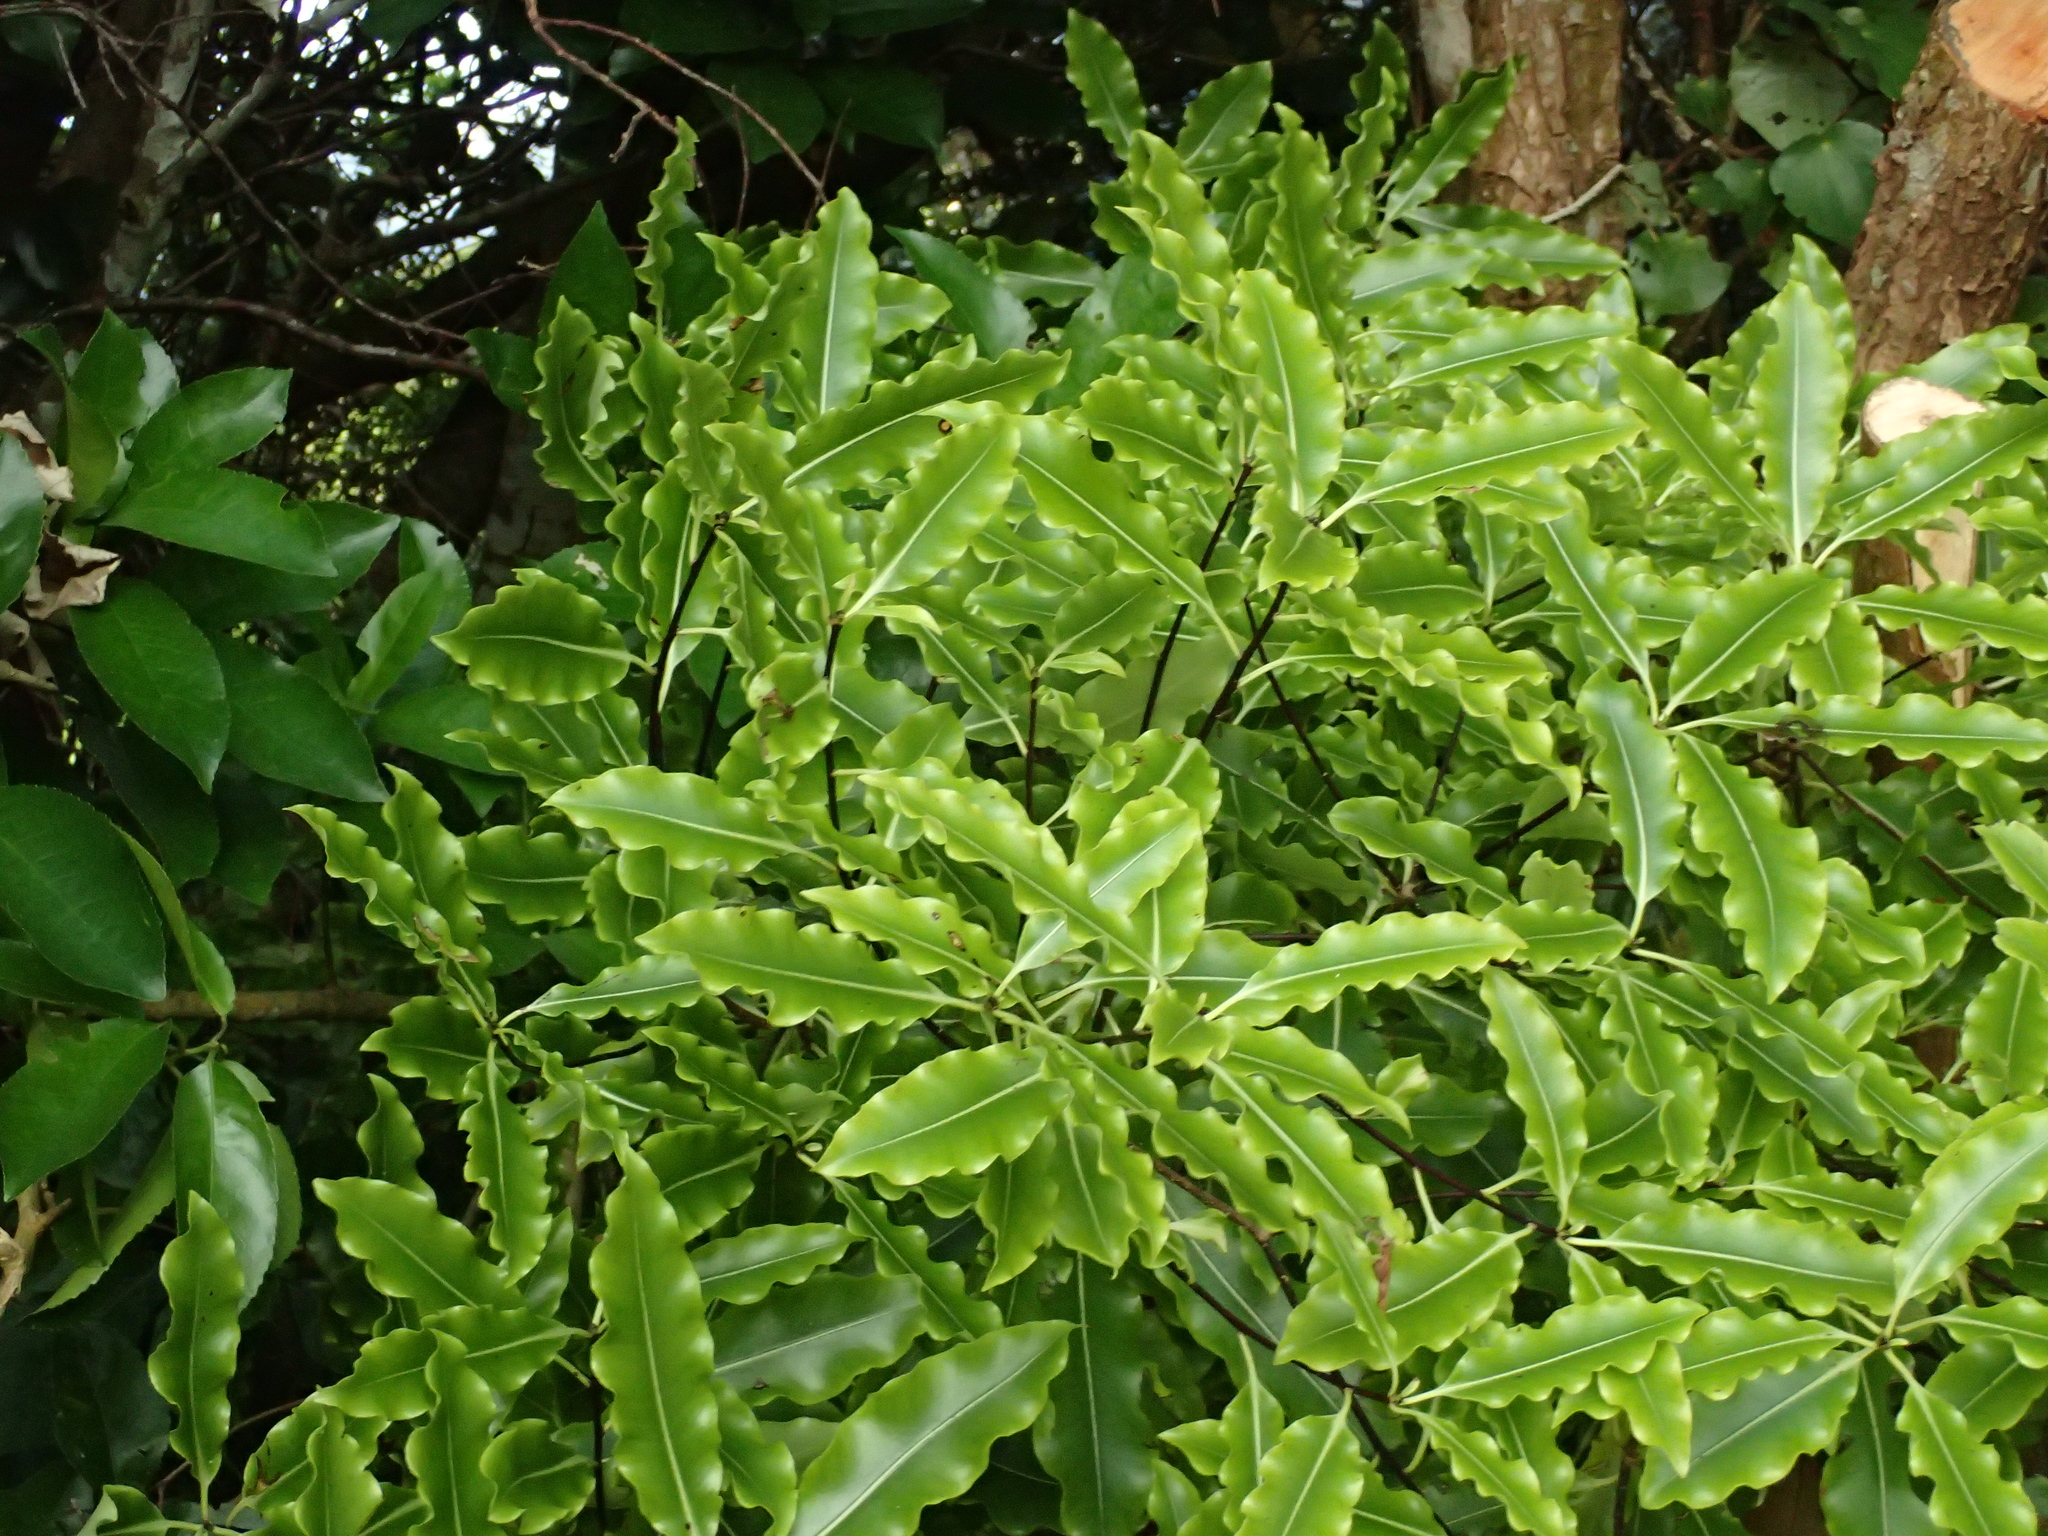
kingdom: Plantae
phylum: Tracheophyta
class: Magnoliopsida
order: Apiales
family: Pittosporaceae
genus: Pittosporum
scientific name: Pittosporum eugenioides
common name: Lemonwood
